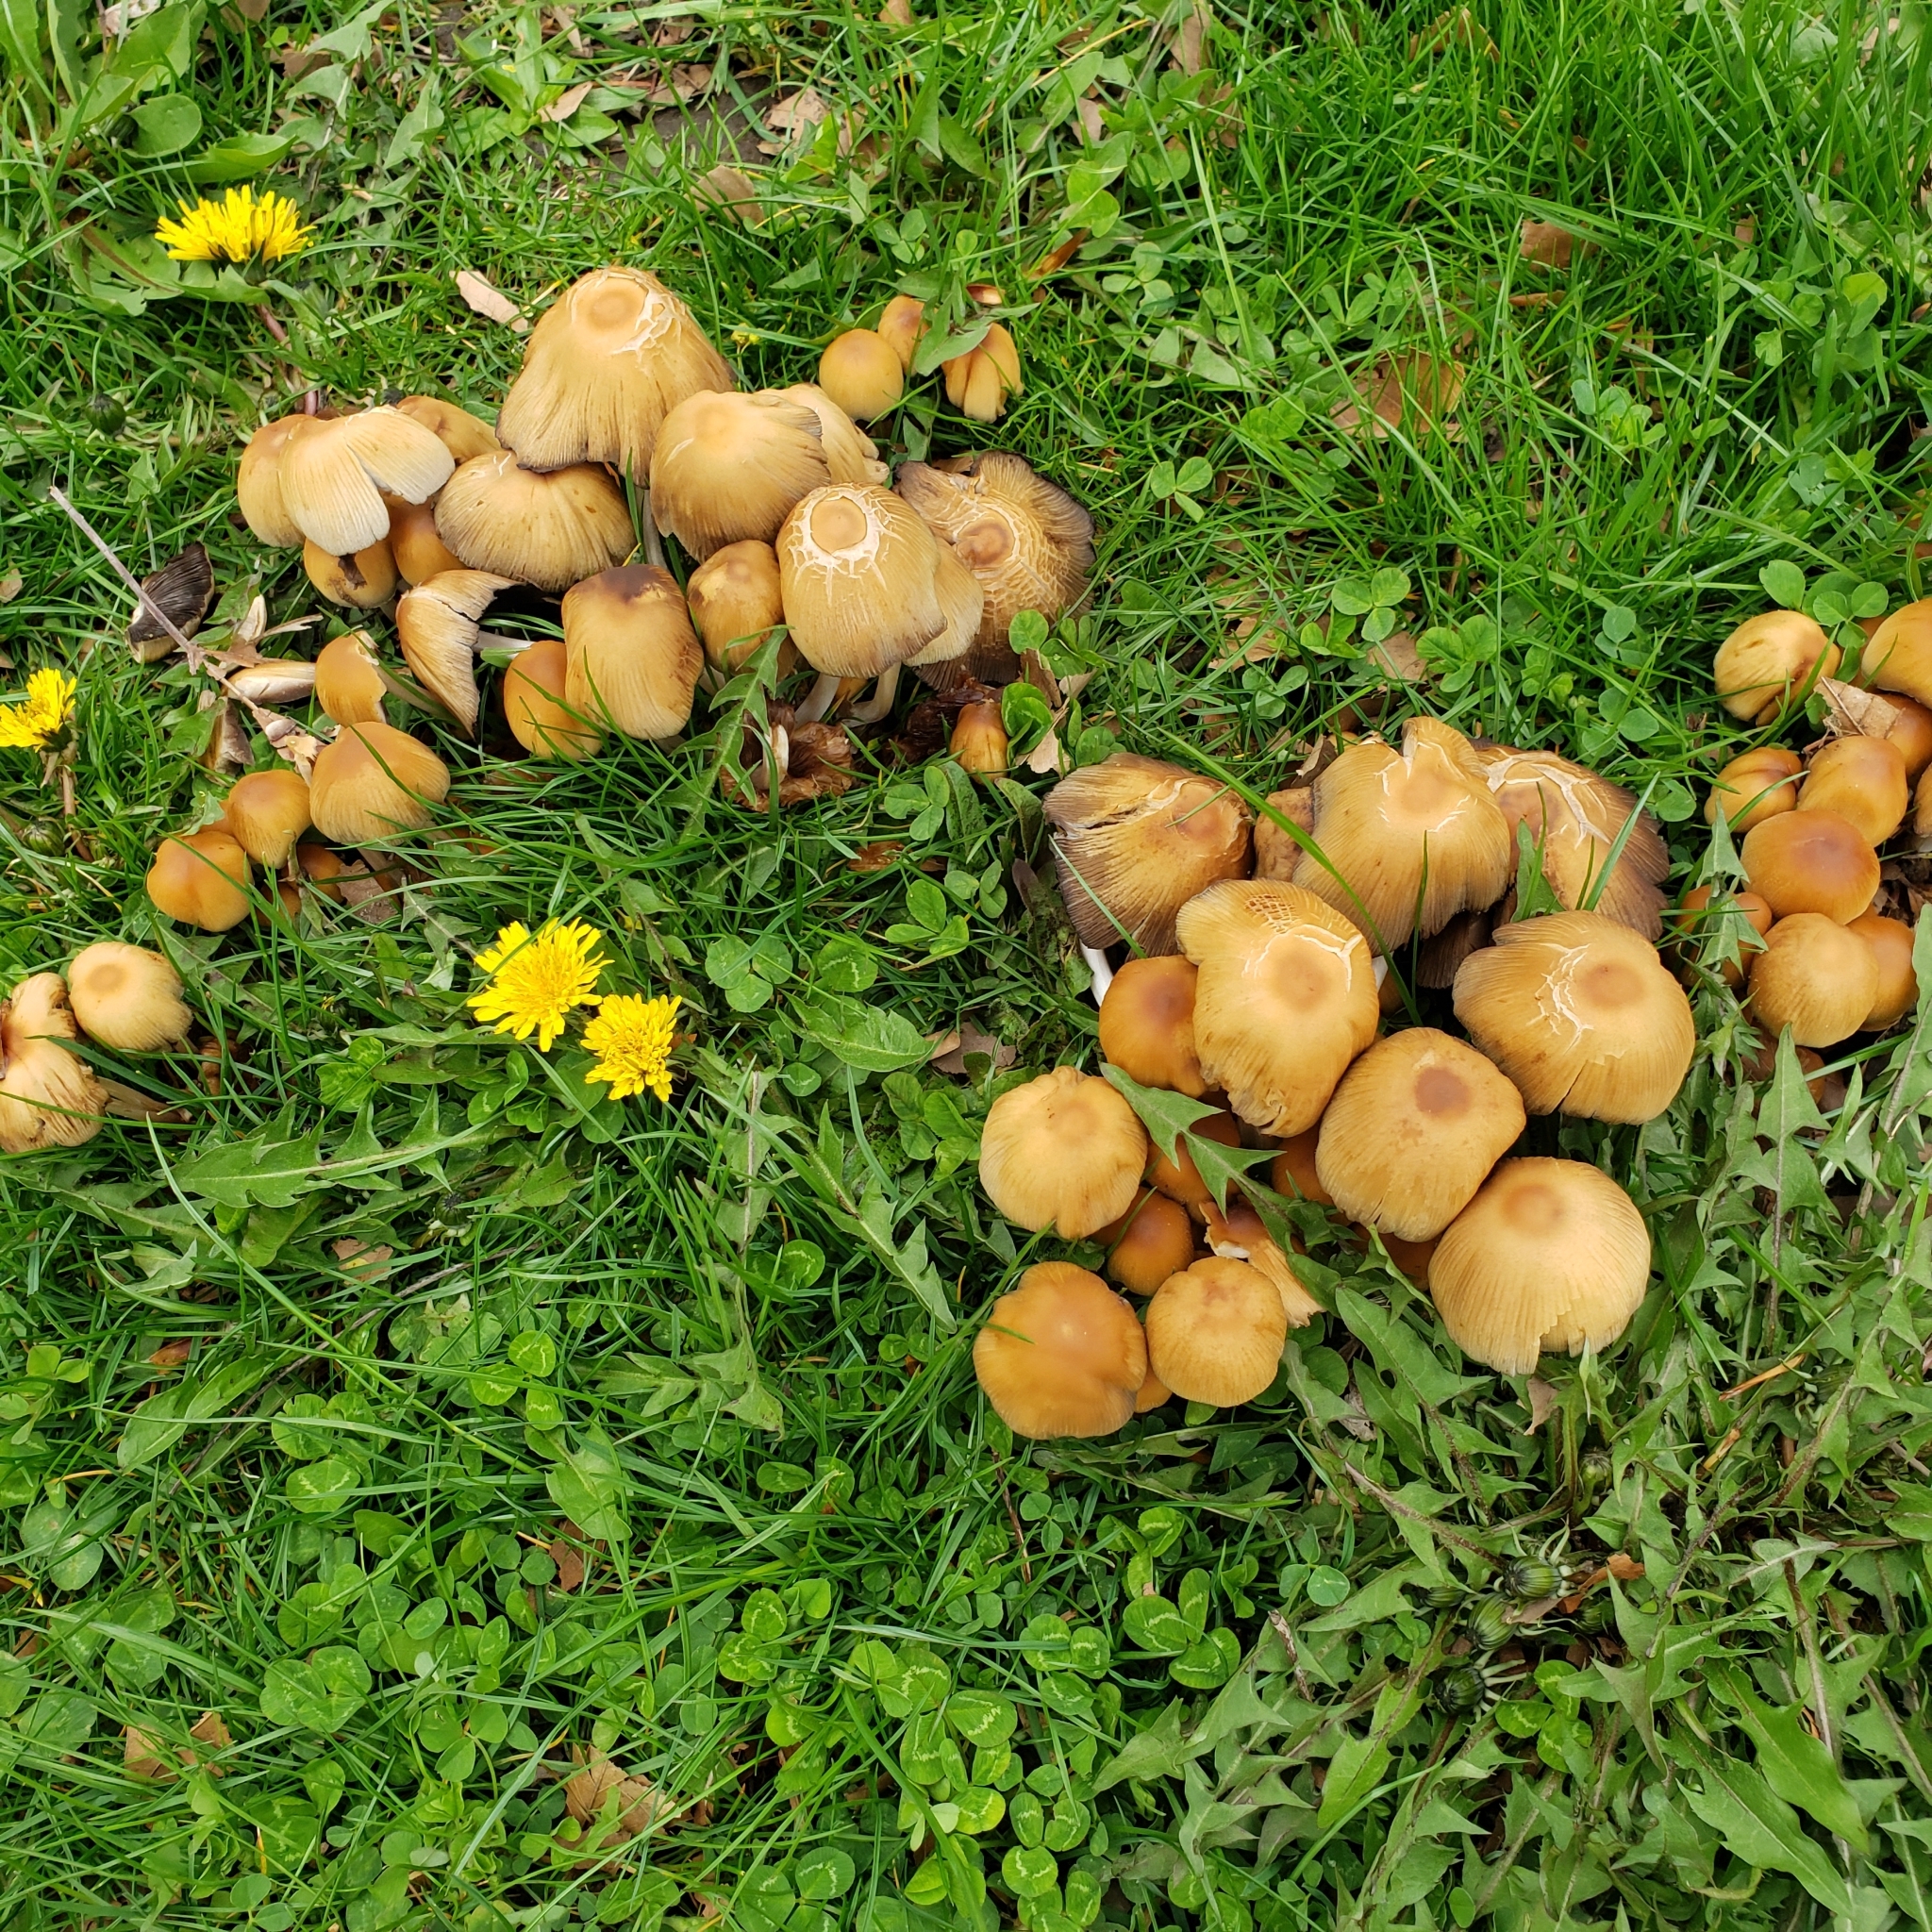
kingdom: Fungi
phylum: Basidiomycota
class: Agaricomycetes
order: Agaricales
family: Psathyrellaceae
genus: Coprinellus
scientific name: Coprinellus micaceus
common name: Glistening ink-cap
